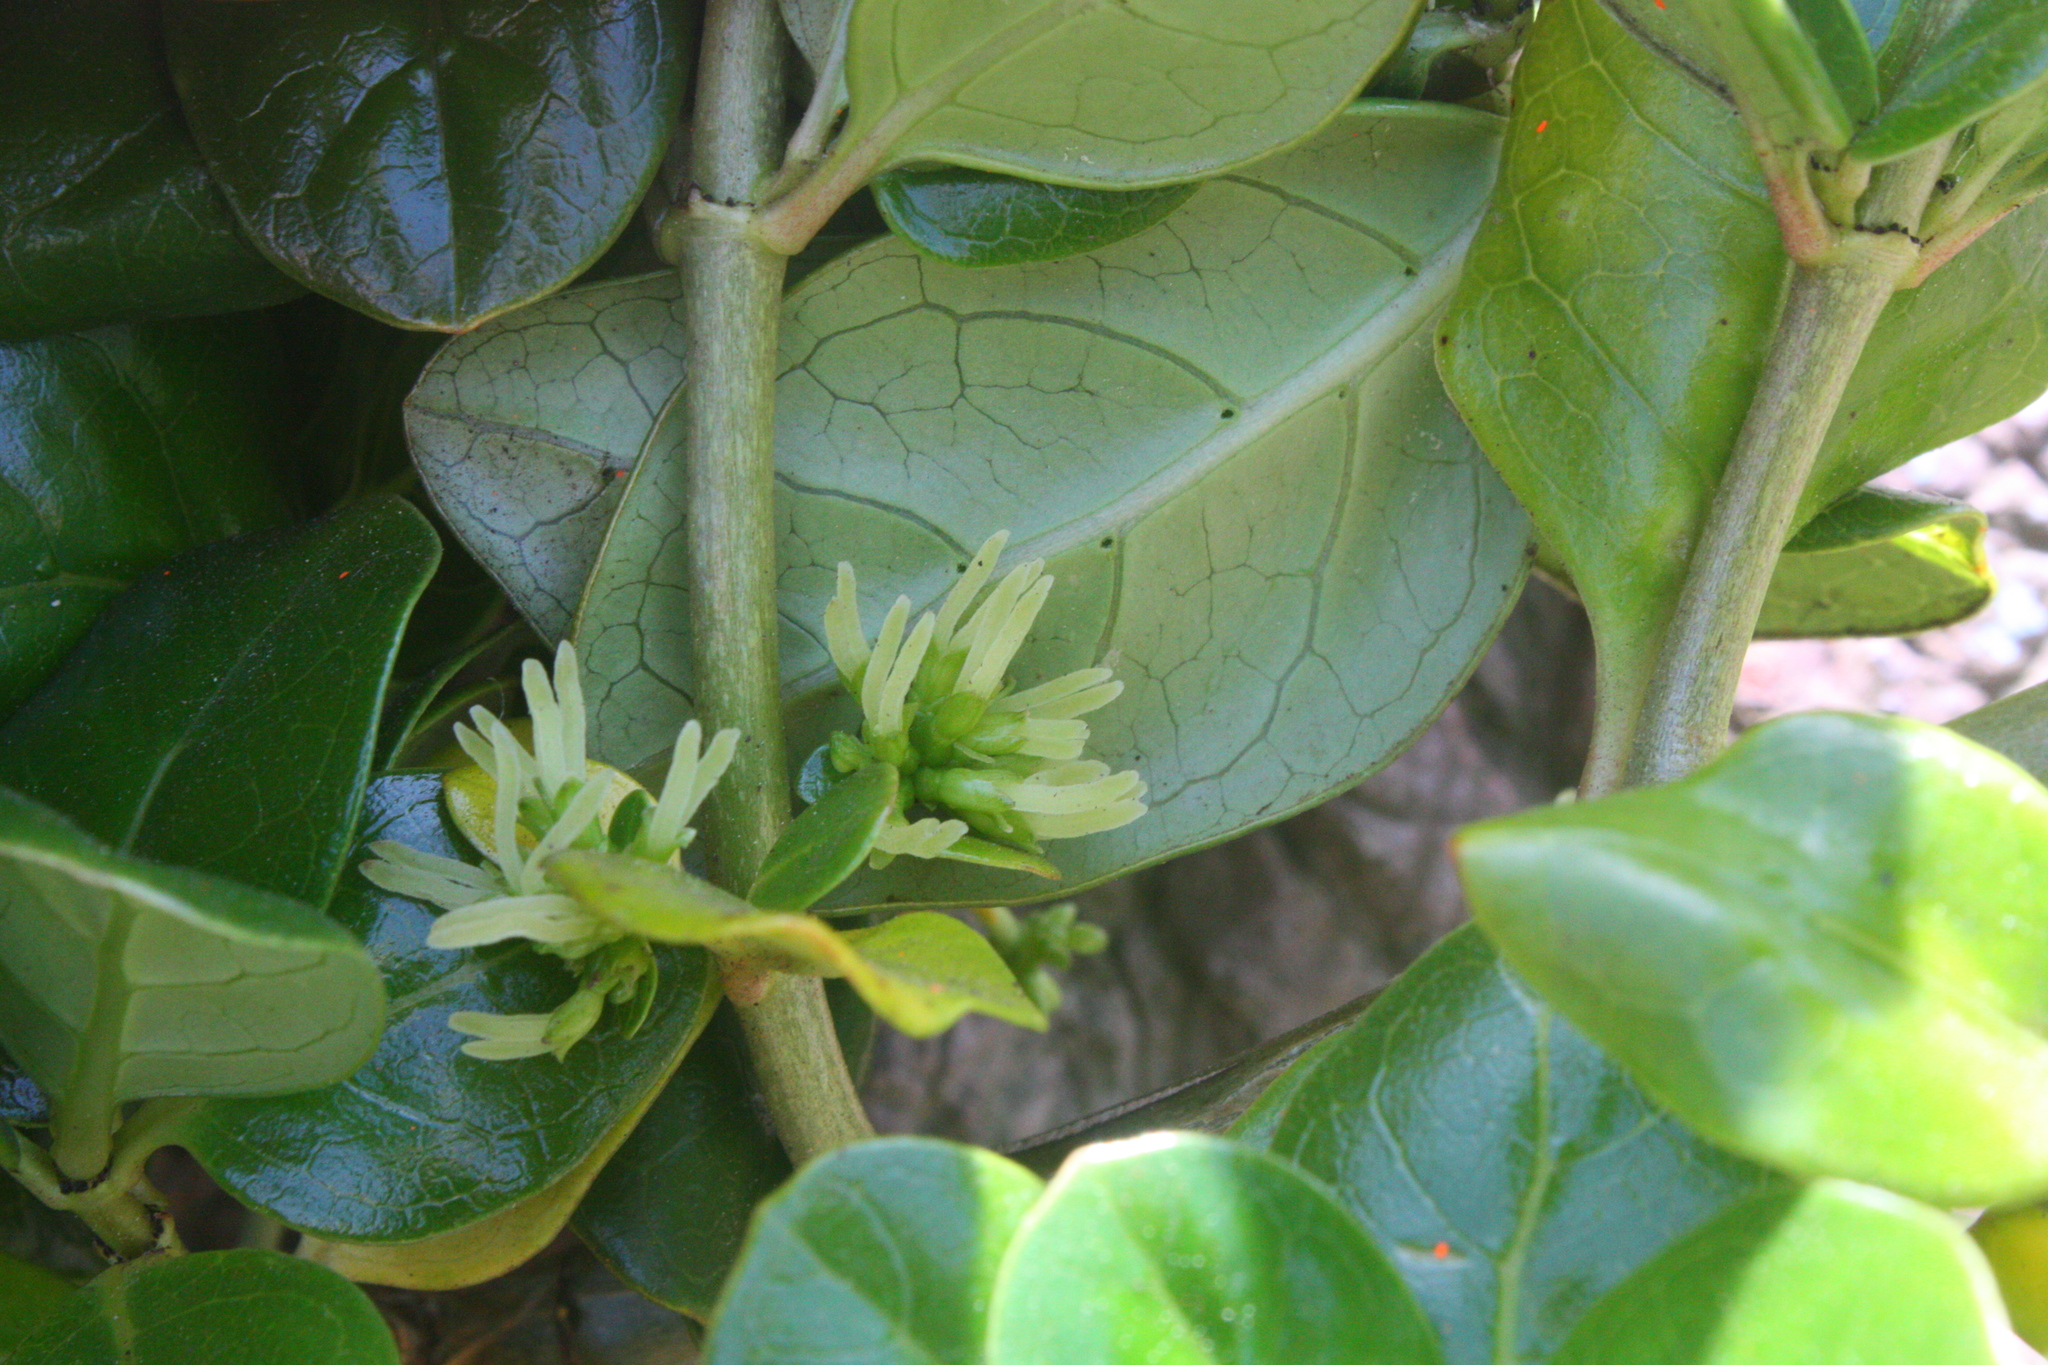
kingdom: Plantae
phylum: Tracheophyta
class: Magnoliopsida
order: Gentianales
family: Rubiaceae
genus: Coprosma
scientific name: Coprosma repens
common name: Tree bedstraw
